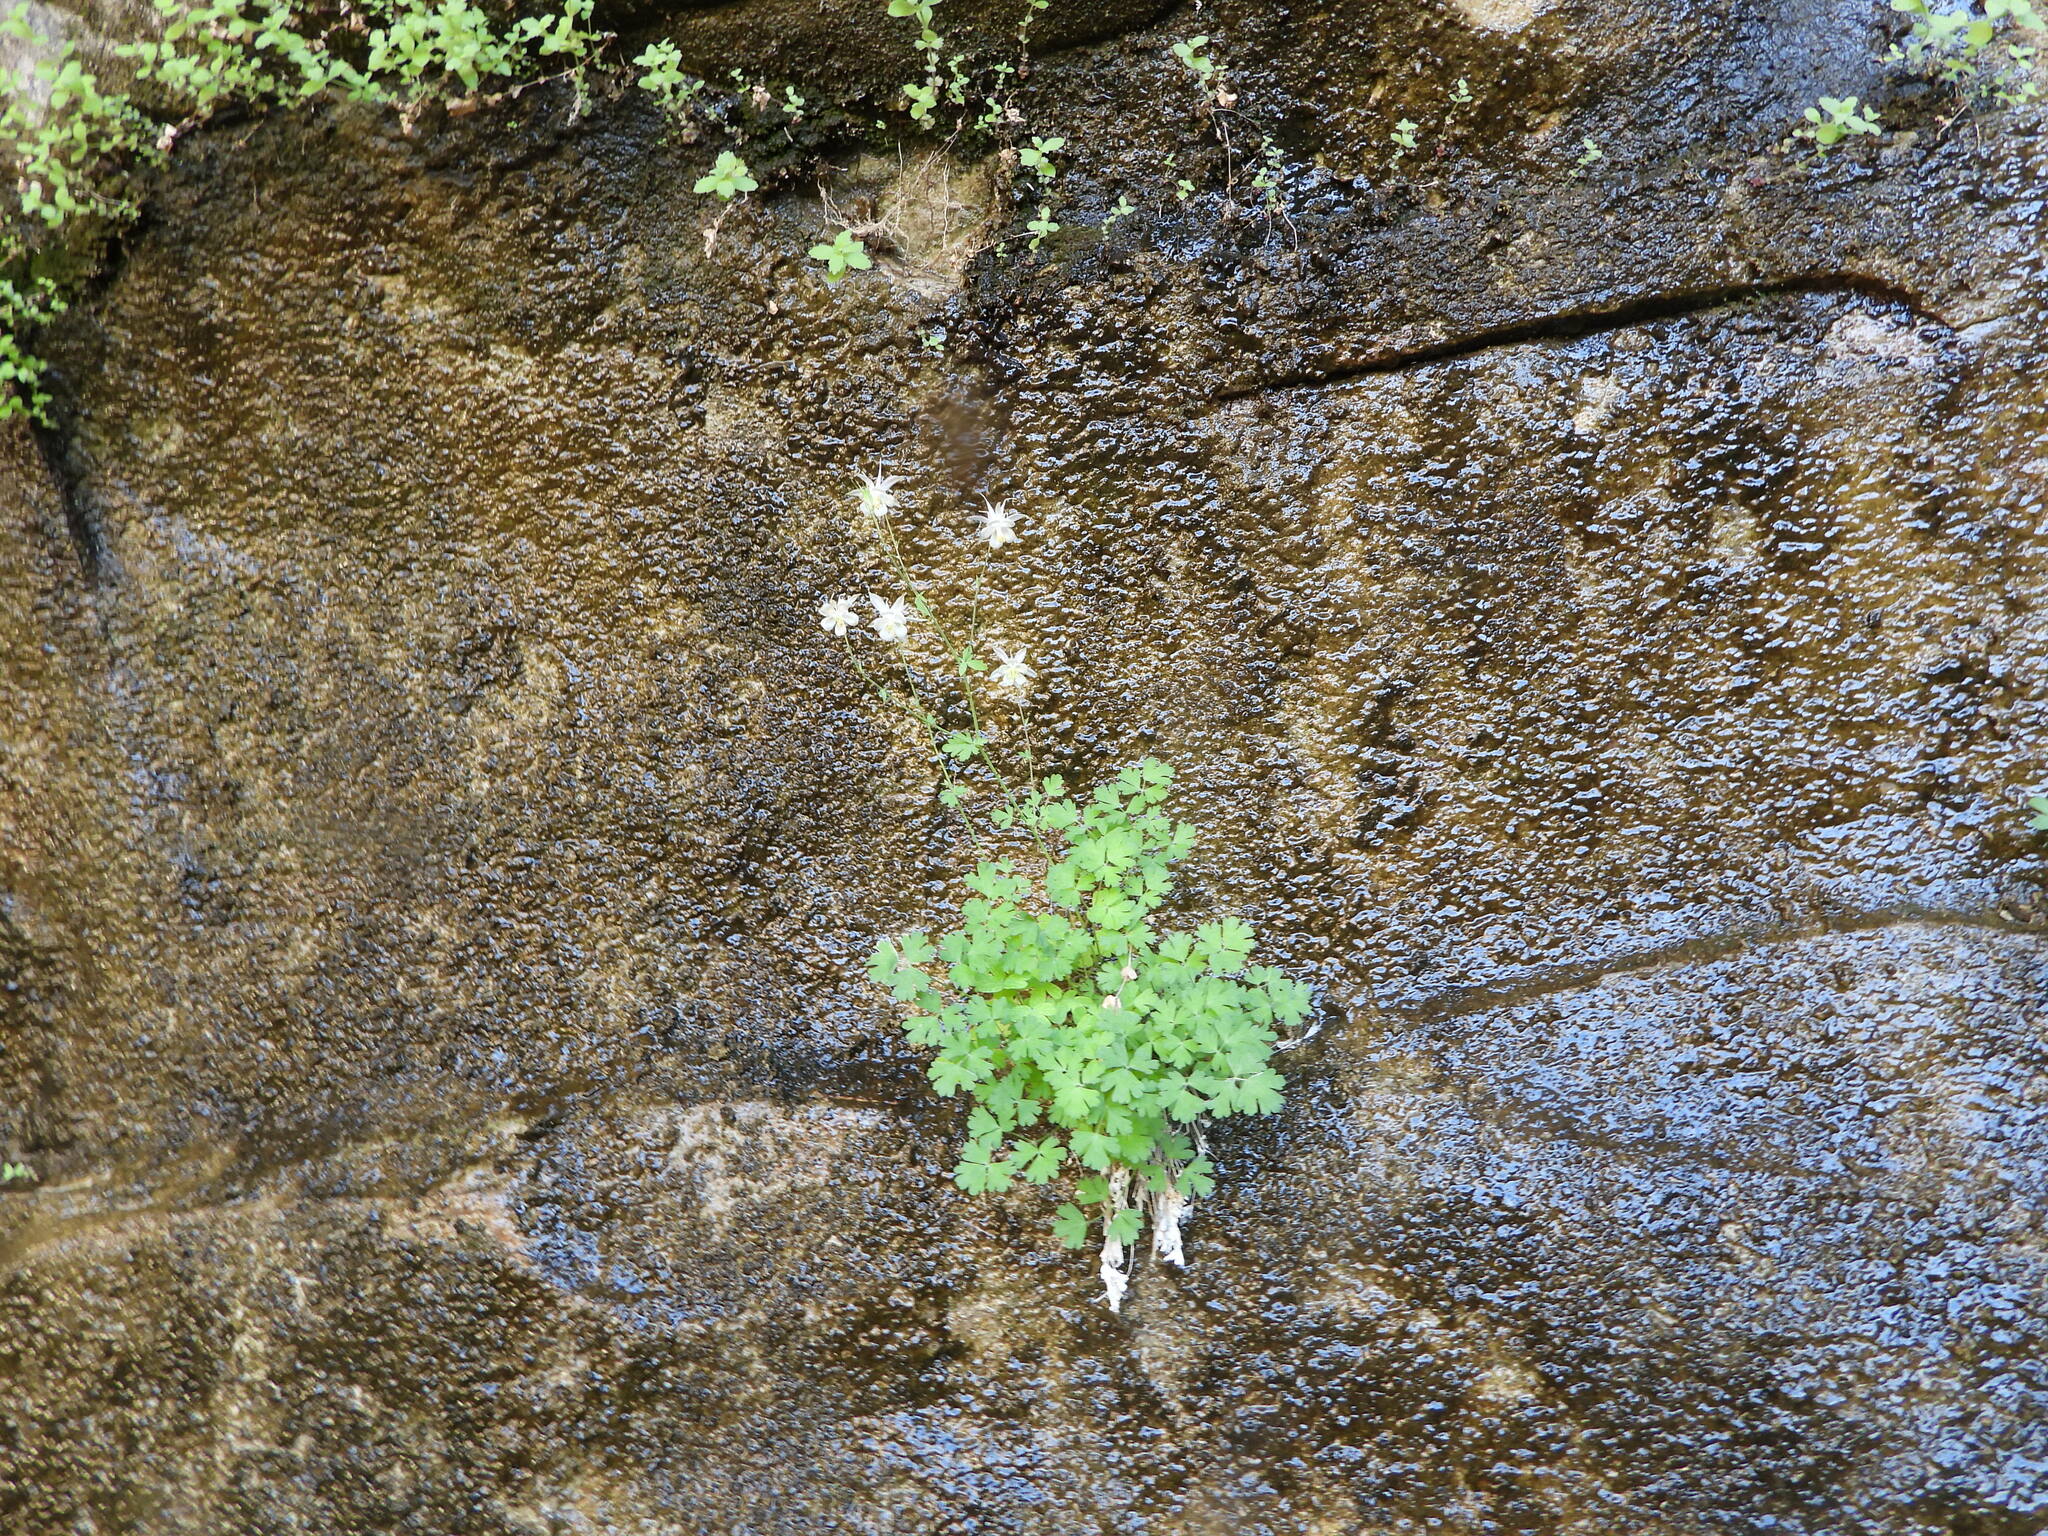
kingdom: Plantae
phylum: Tracheophyta
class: Magnoliopsida
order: Ranunculales
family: Ranunculaceae
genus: Aquilegia
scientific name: Aquilegia micrantha
